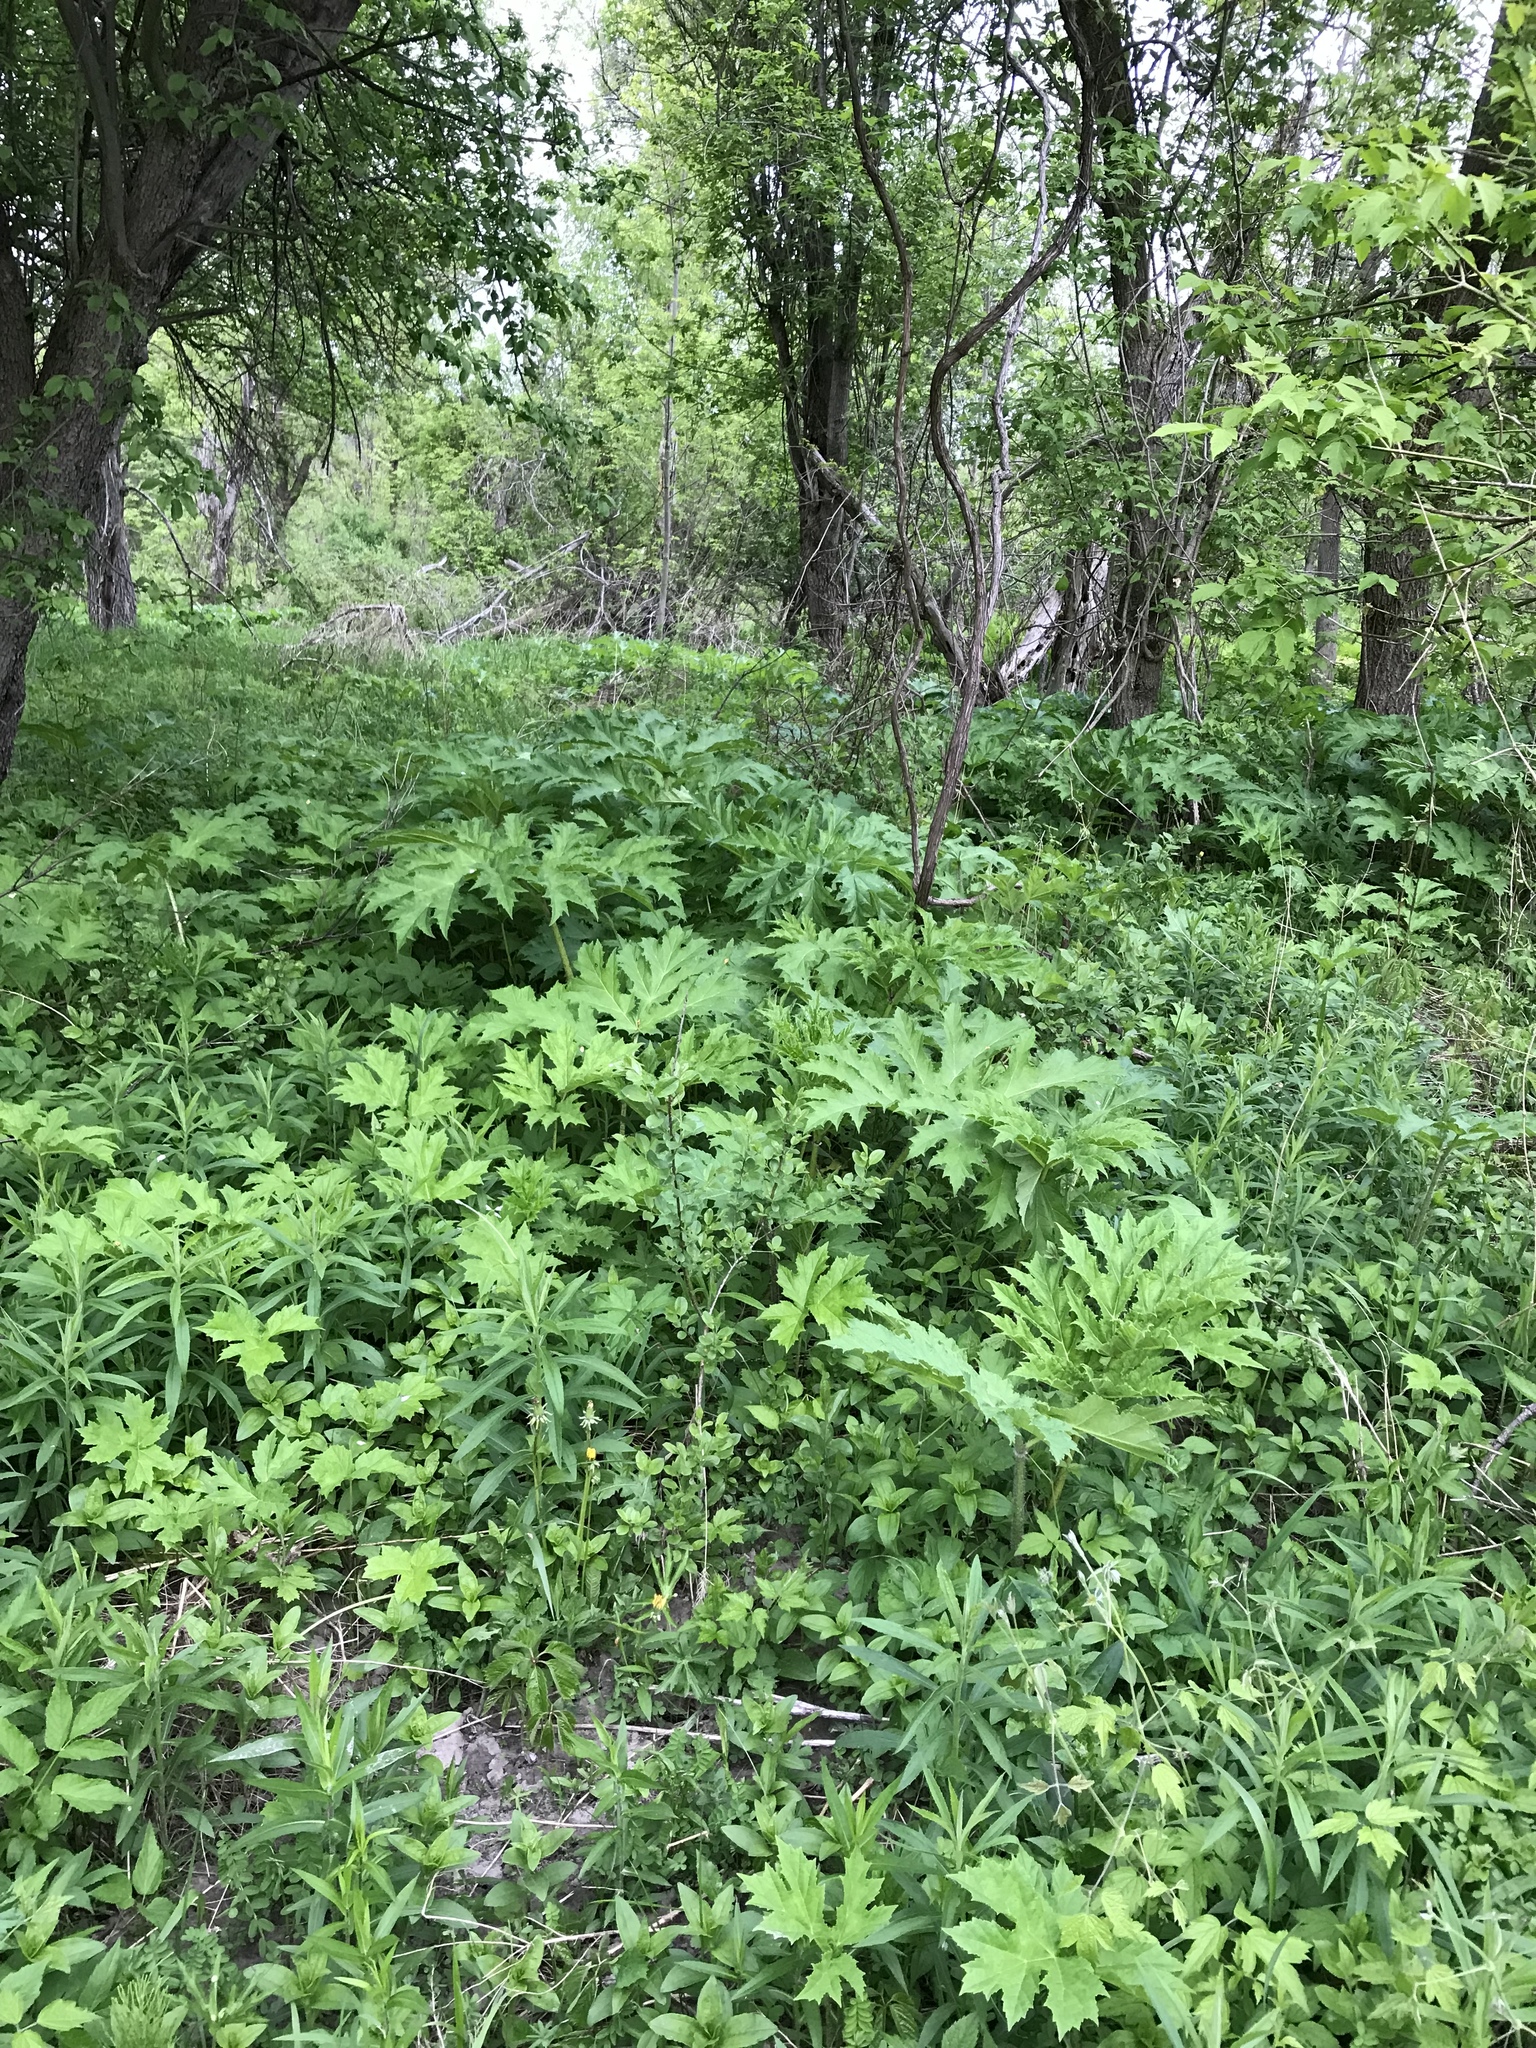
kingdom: Plantae
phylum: Tracheophyta
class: Magnoliopsida
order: Apiales
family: Apiaceae
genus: Heracleum
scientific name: Heracleum mantegazzianum
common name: Giant hogweed
